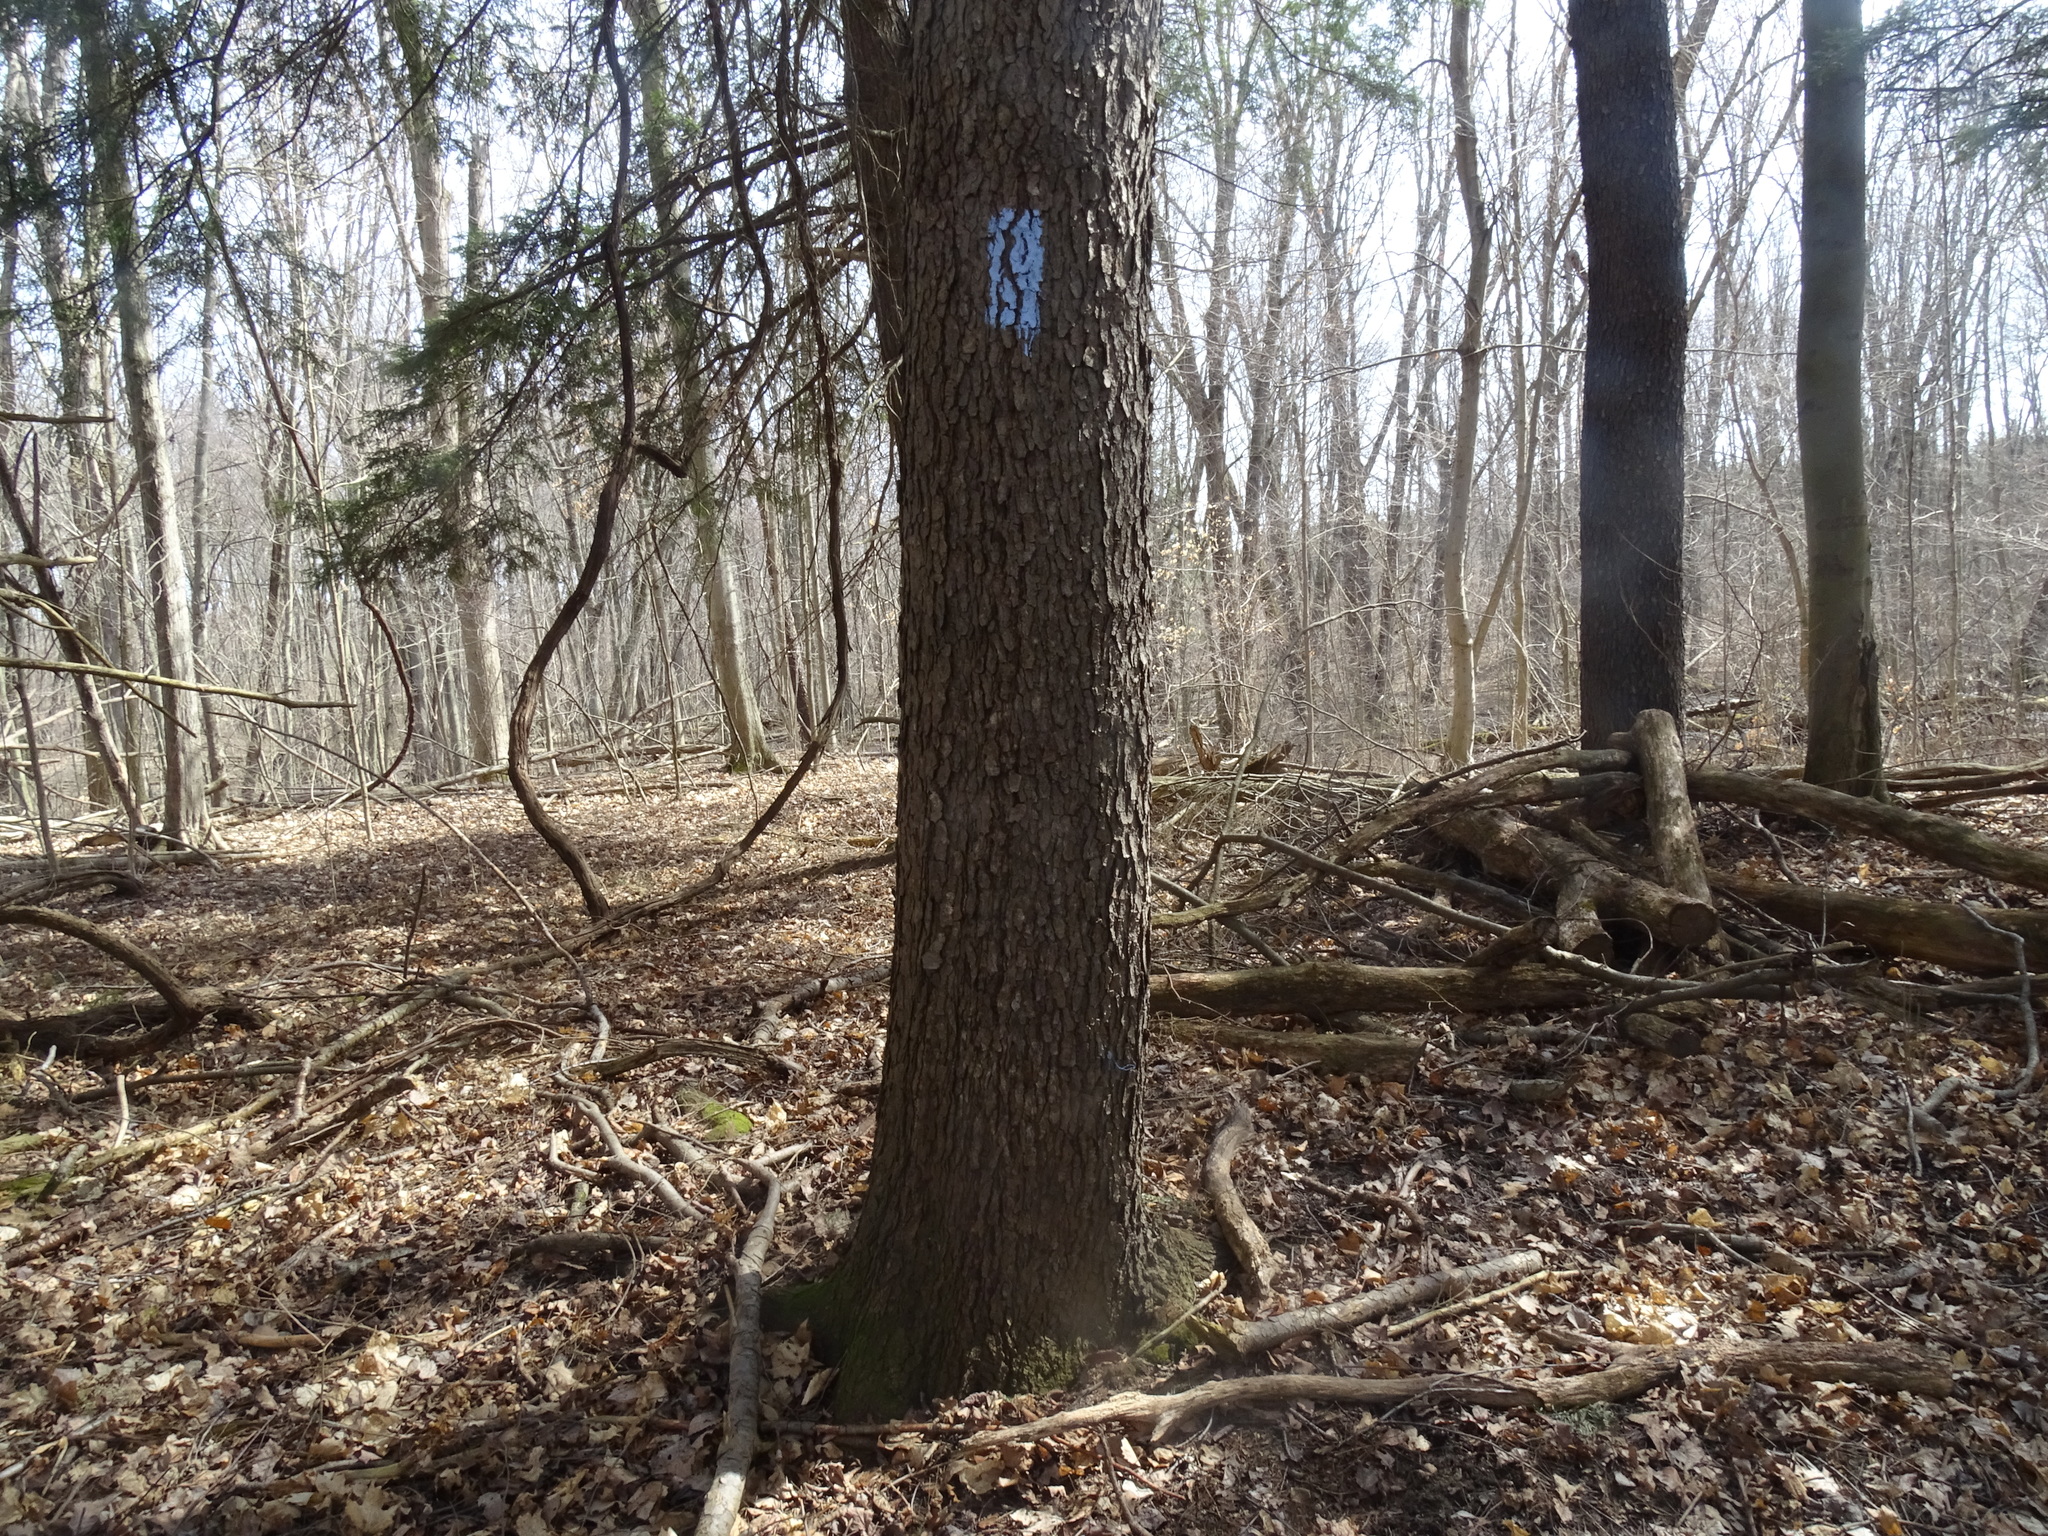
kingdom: Plantae
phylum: Tracheophyta
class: Magnoliopsida
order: Rosales
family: Rosaceae
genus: Prunus
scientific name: Prunus serotina
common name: Black cherry
